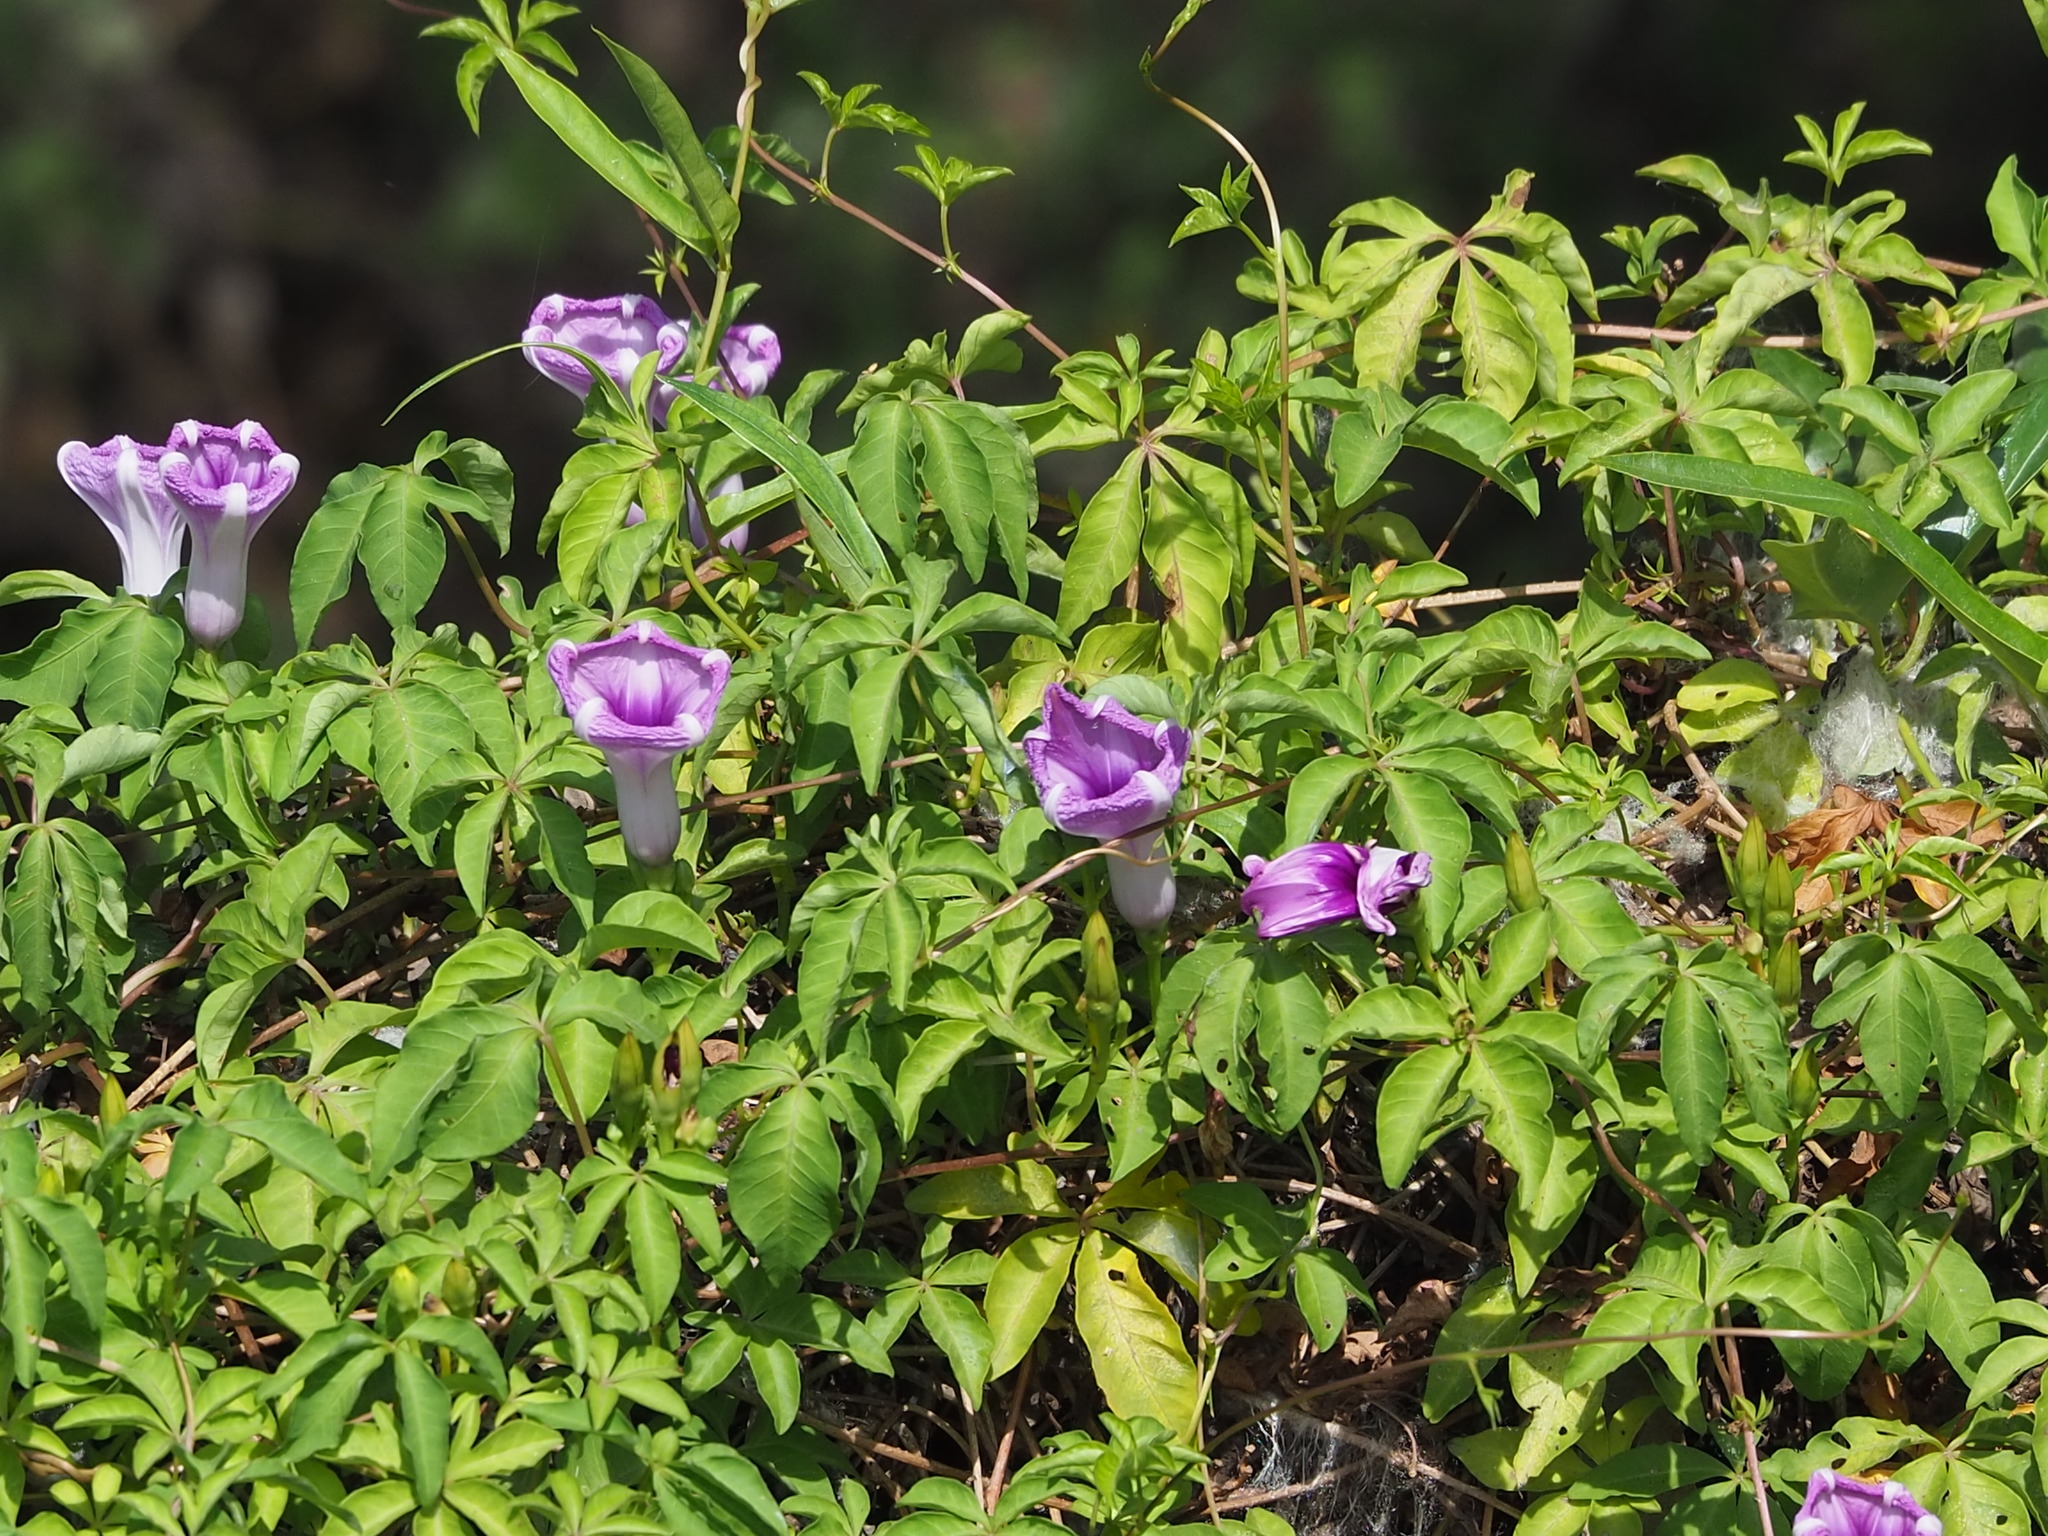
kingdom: Plantae
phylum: Tracheophyta
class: Magnoliopsida
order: Solanales
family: Convolvulaceae
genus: Ipomoea
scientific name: Ipomoea cairica
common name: Mile a minute vine
